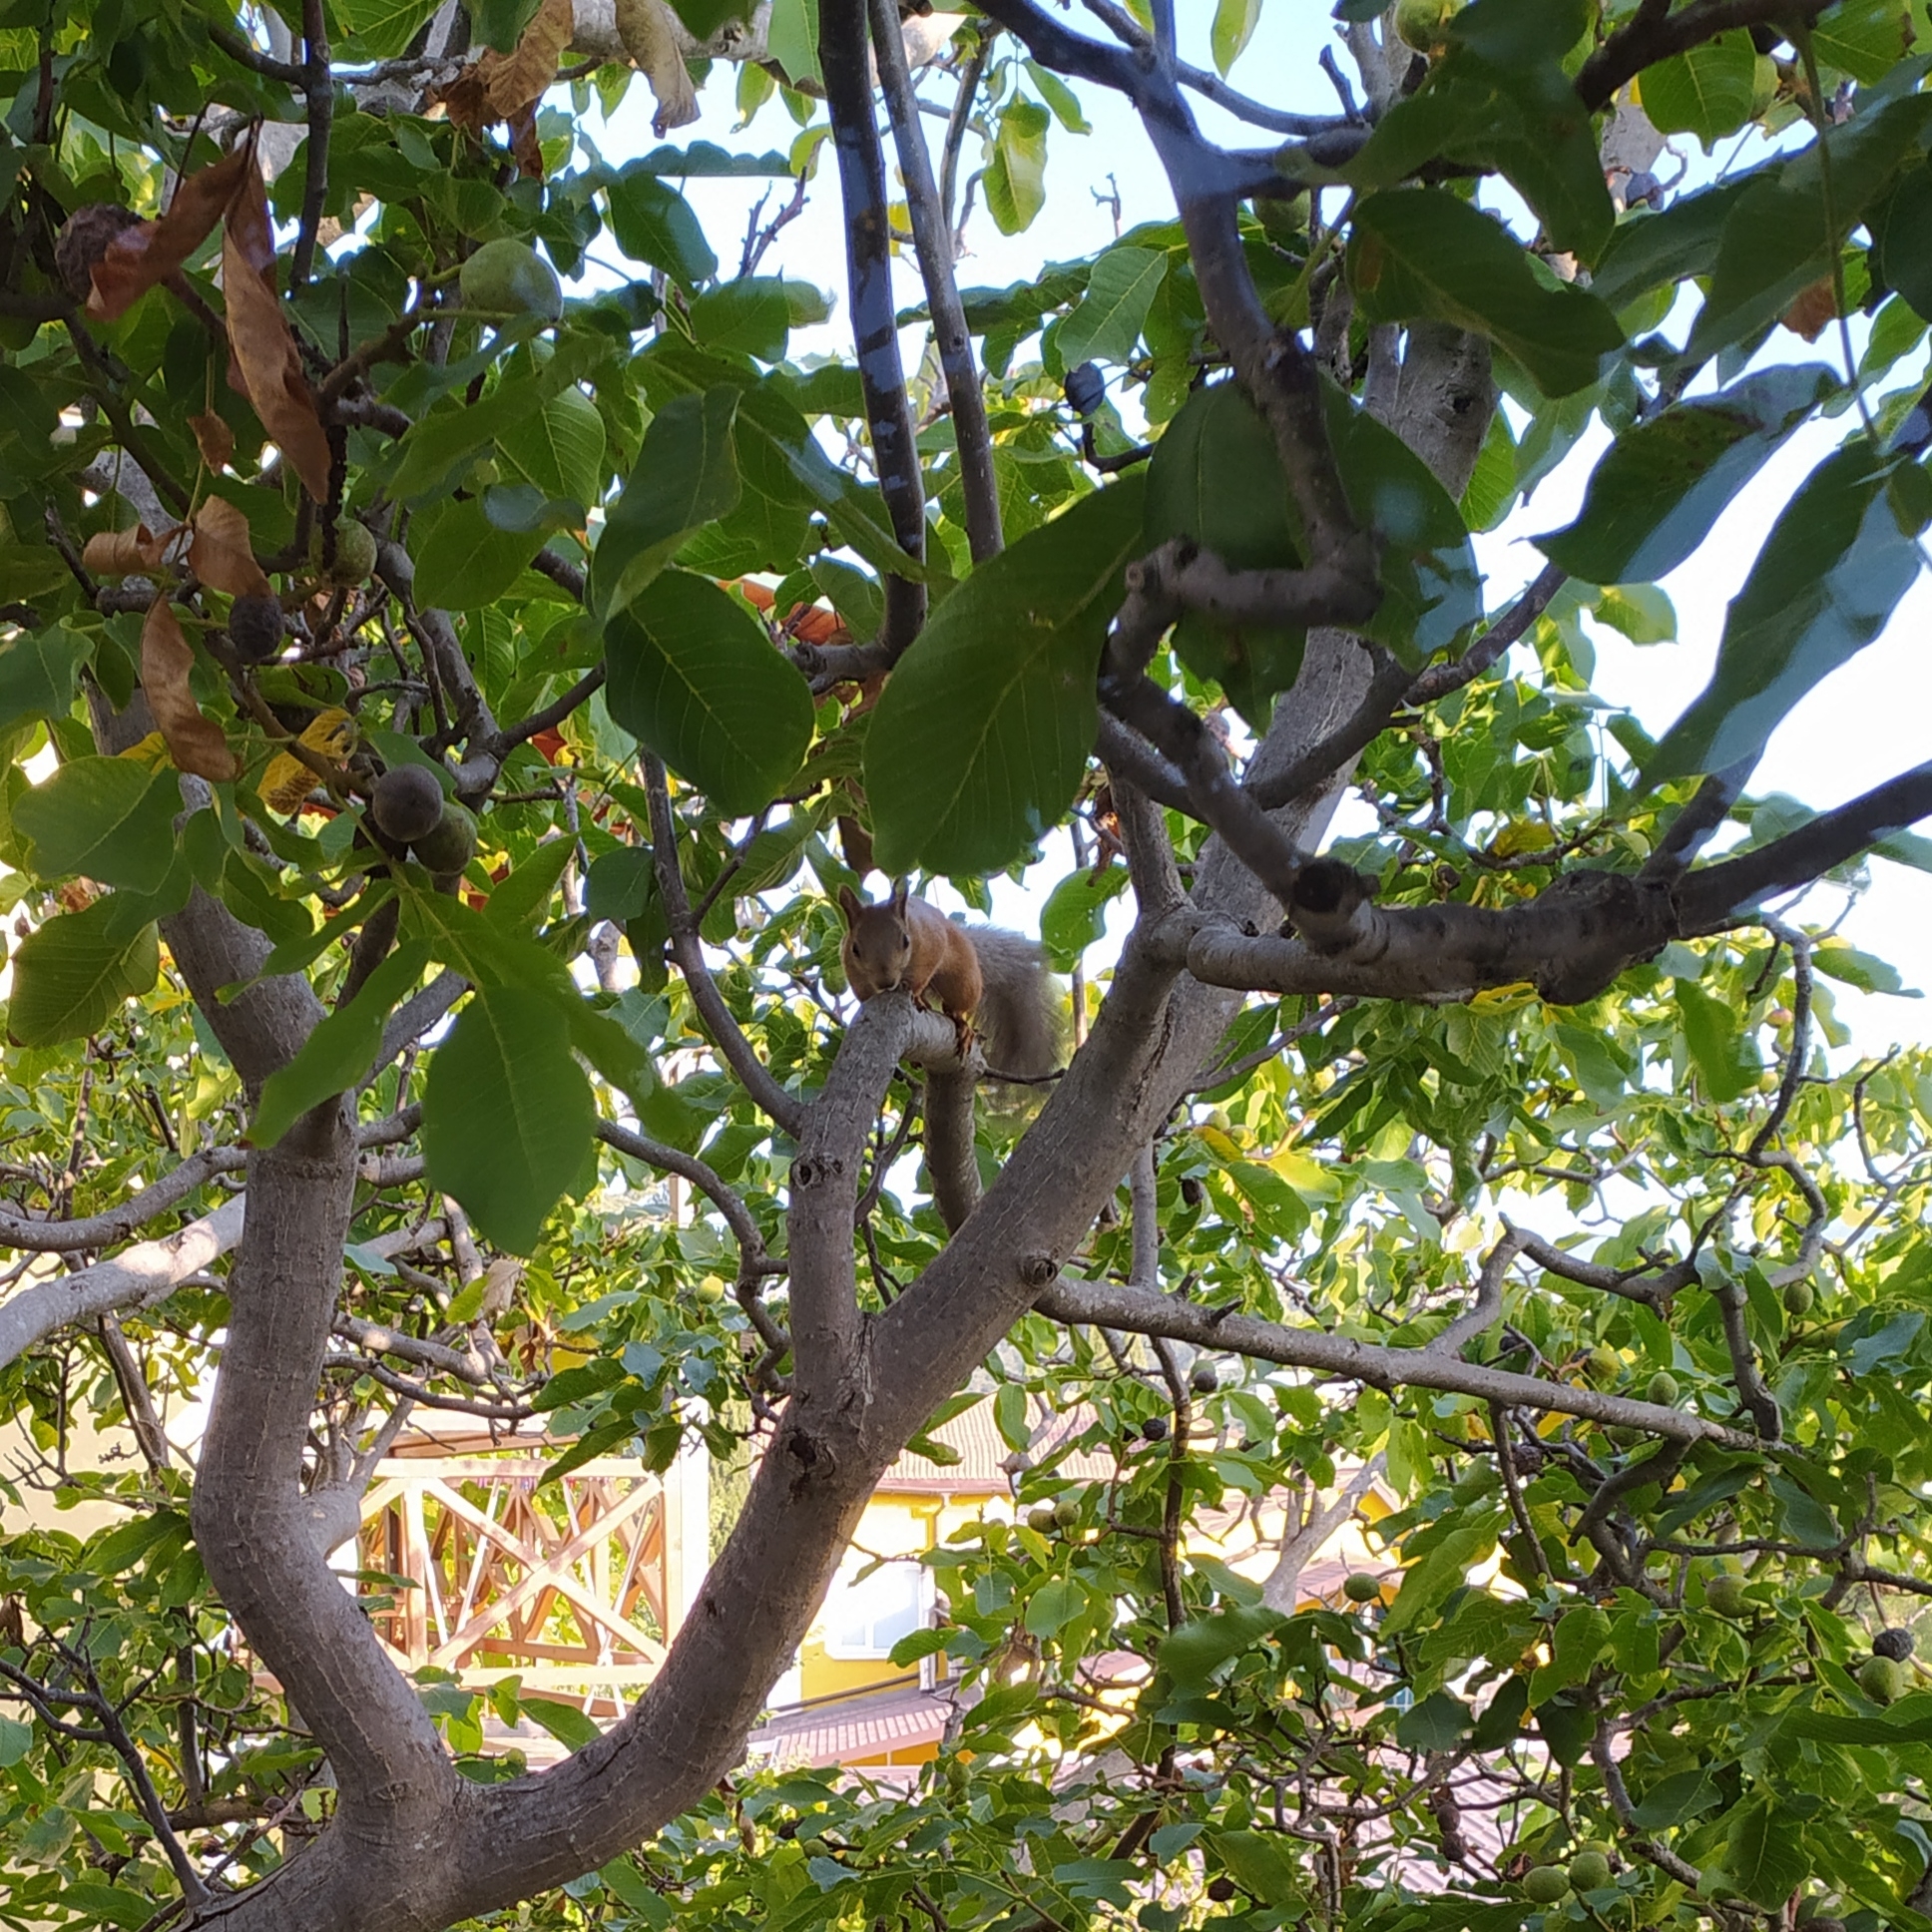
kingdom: Animalia
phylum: Chordata
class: Mammalia
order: Rodentia
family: Sciuridae
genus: Sciurus
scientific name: Sciurus vulgaris
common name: Eurasian red squirrel
